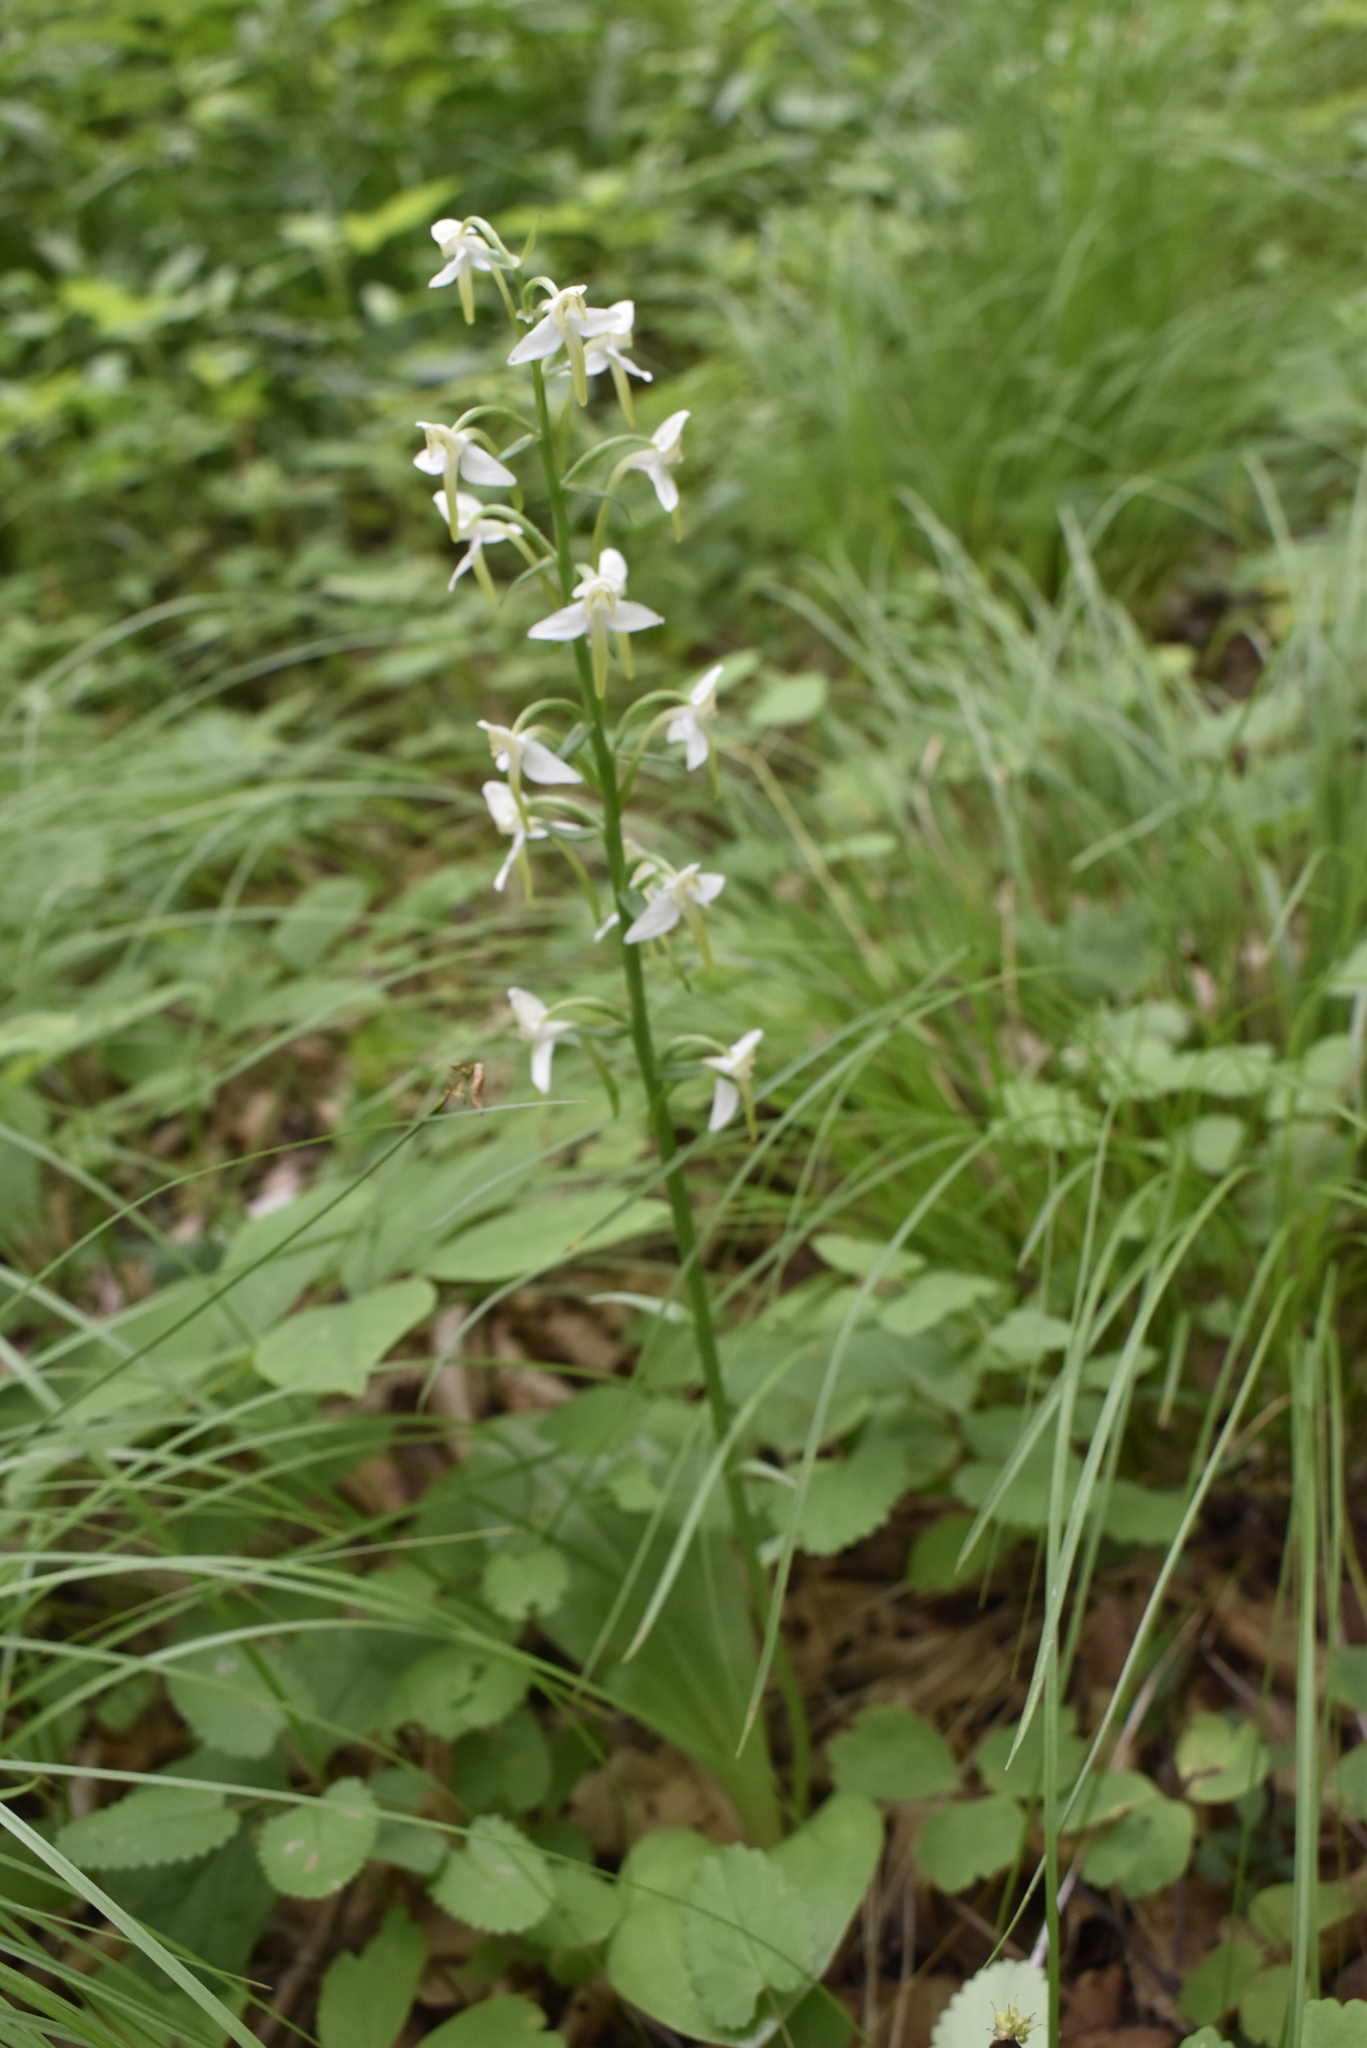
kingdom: Plantae
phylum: Tracheophyta
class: Liliopsida
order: Asparagales
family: Orchidaceae
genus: Platanthera
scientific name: Platanthera densa
